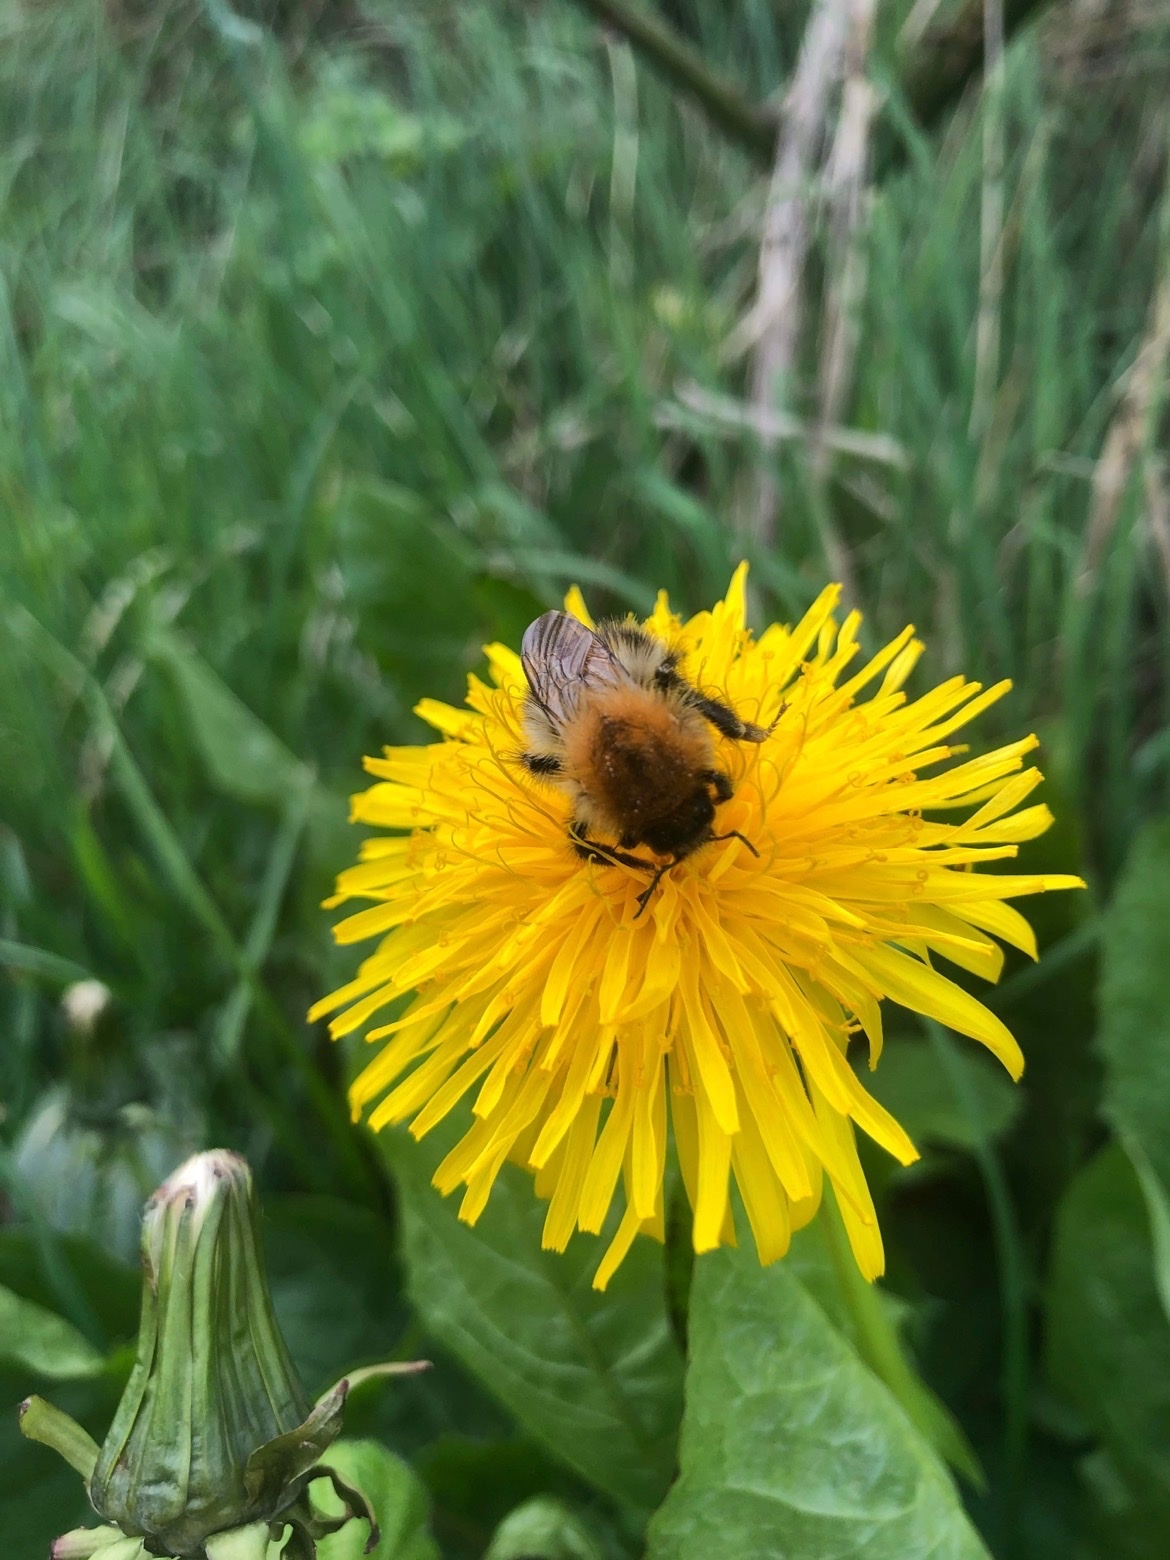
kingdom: Animalia
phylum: Arthropoda
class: Insecta
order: Hymenoptera
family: Apidae
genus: Bombus
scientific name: Bombus pascuorum
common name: Common carder bee
